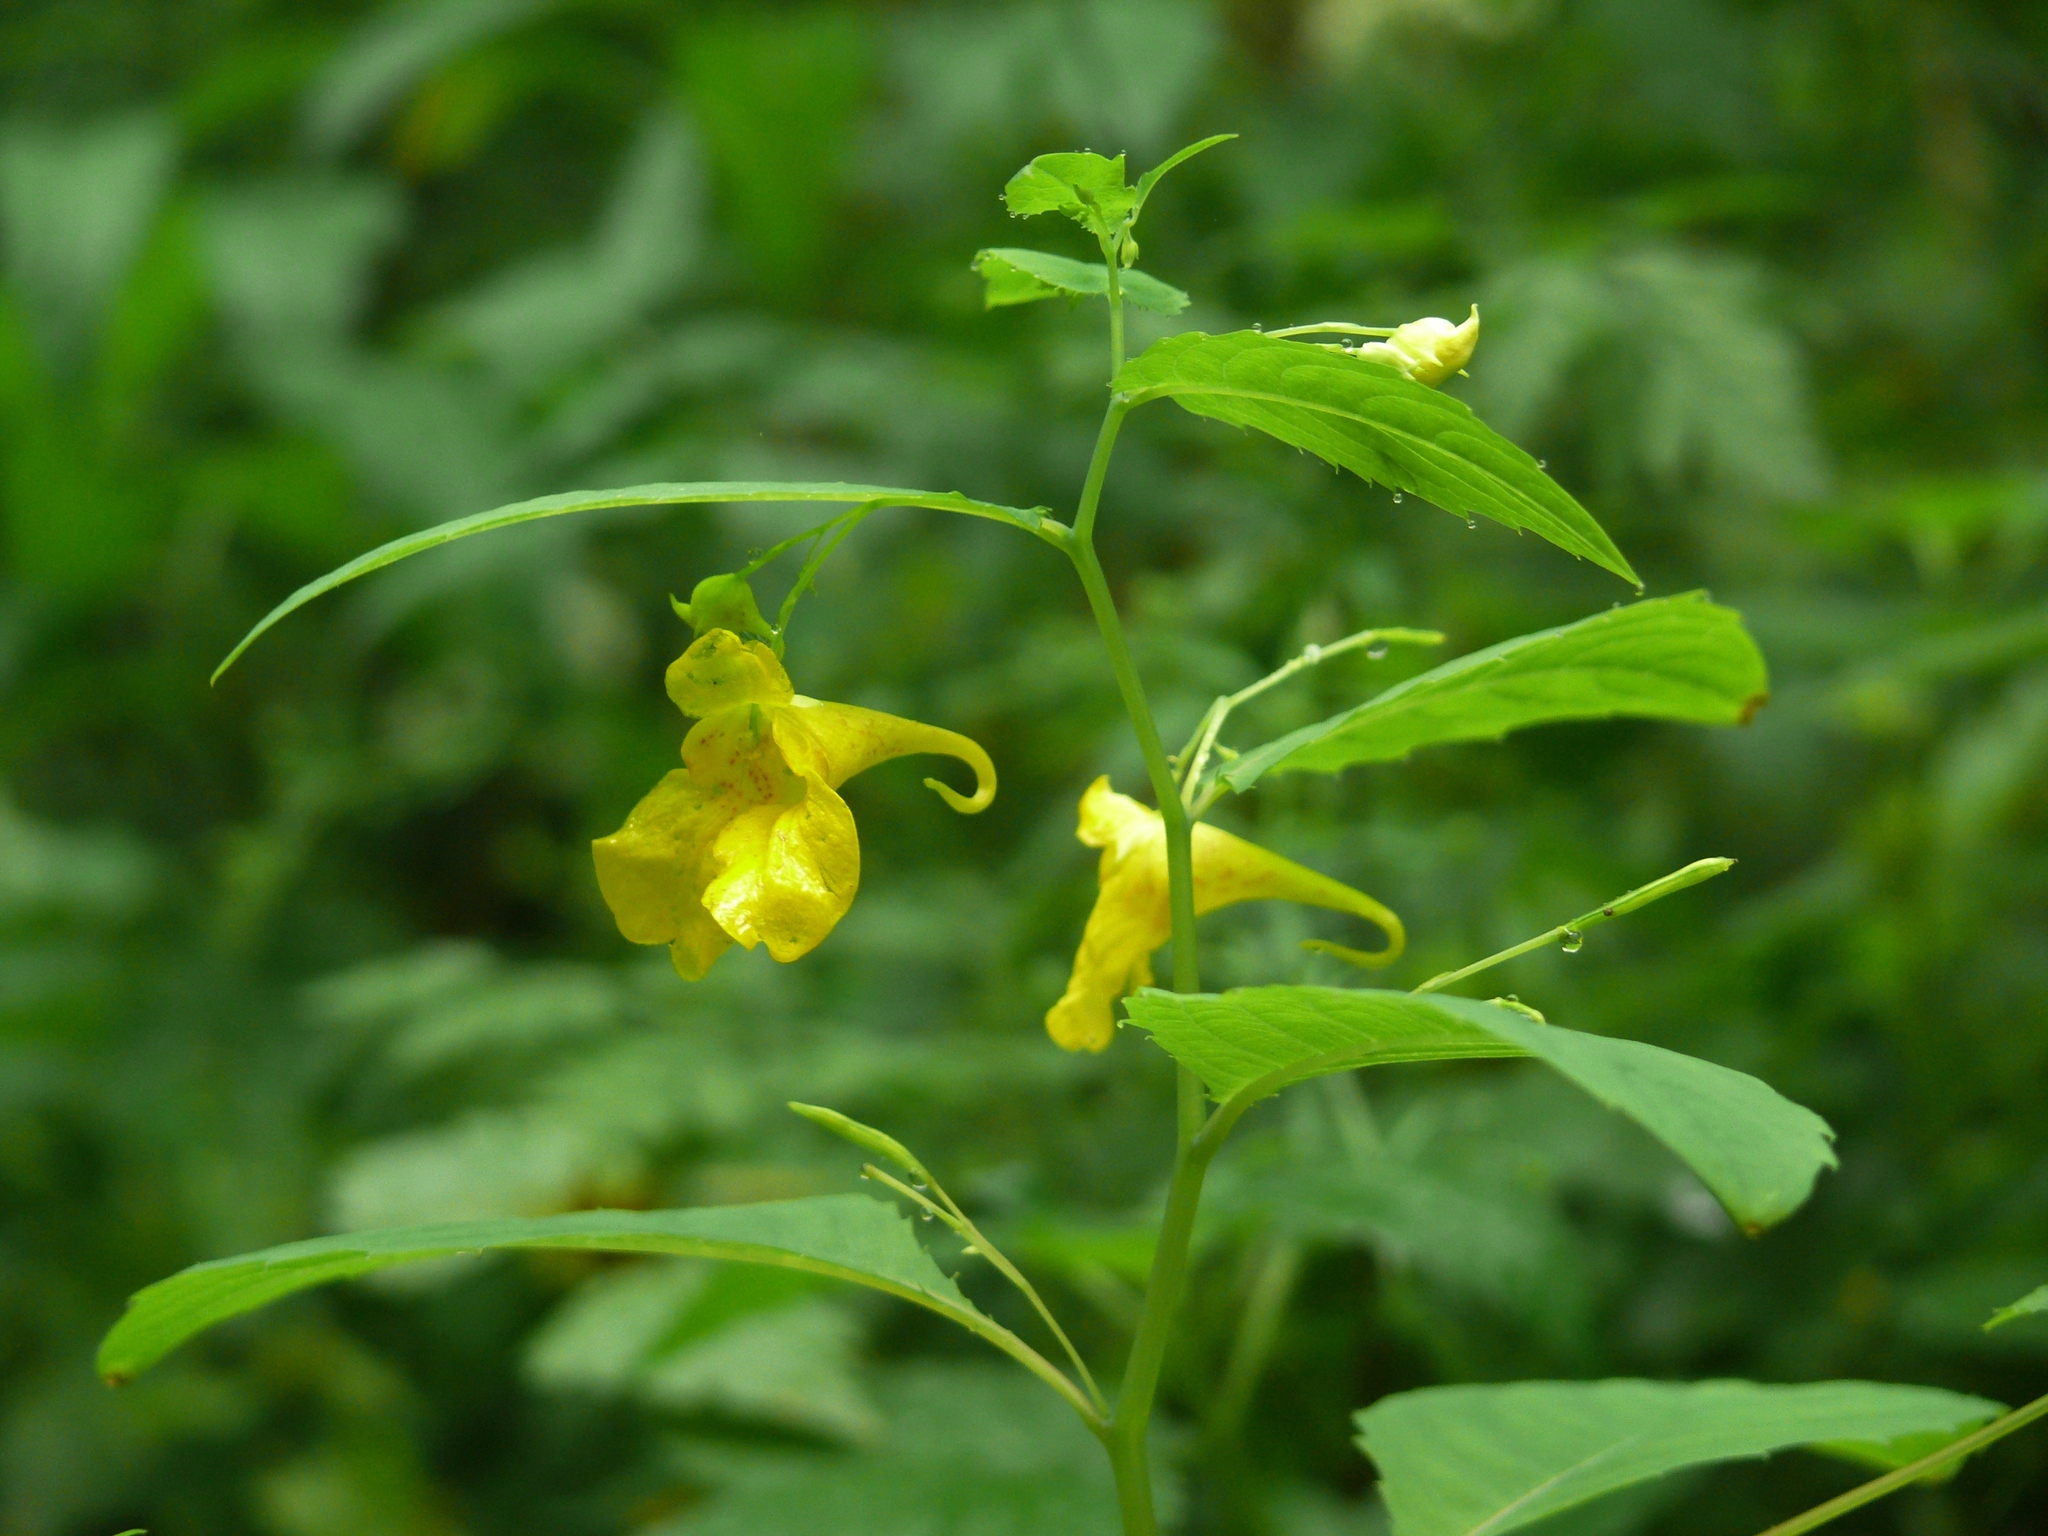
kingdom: Plantae
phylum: Tracheophyta
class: Magnoliopsida
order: Ericales
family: Balsaminaceae
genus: Impatiens
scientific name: Impatiens noli-tangere
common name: Touch-me-not balsam
